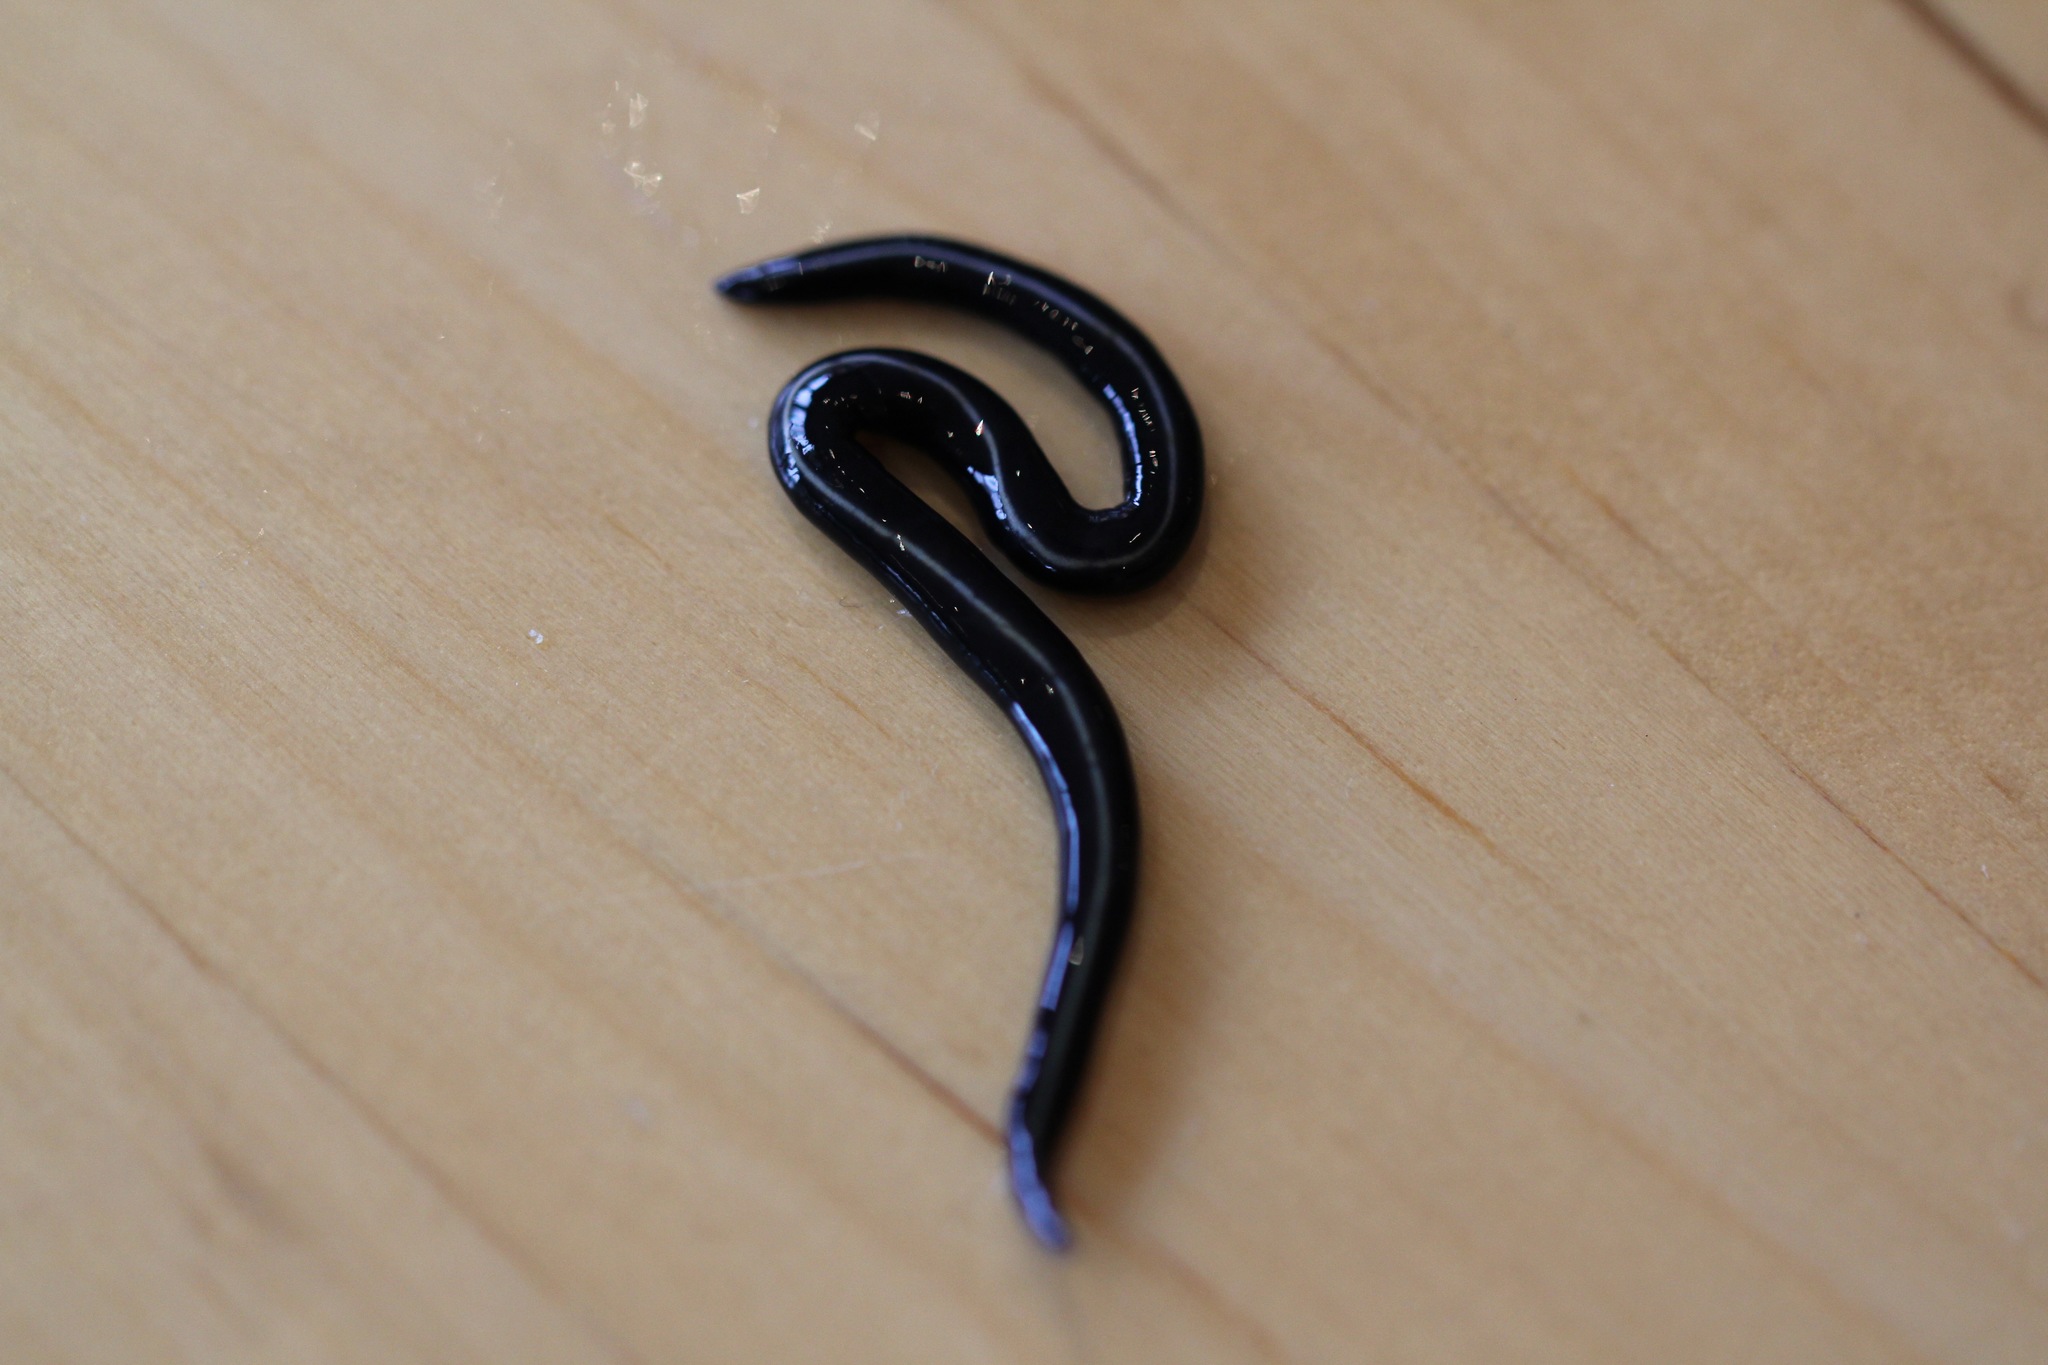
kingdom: Animalia
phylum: Platyhelminthes
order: Tricladida
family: Geoplanidae
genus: Caenoplana
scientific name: Caenoplana coerulea
